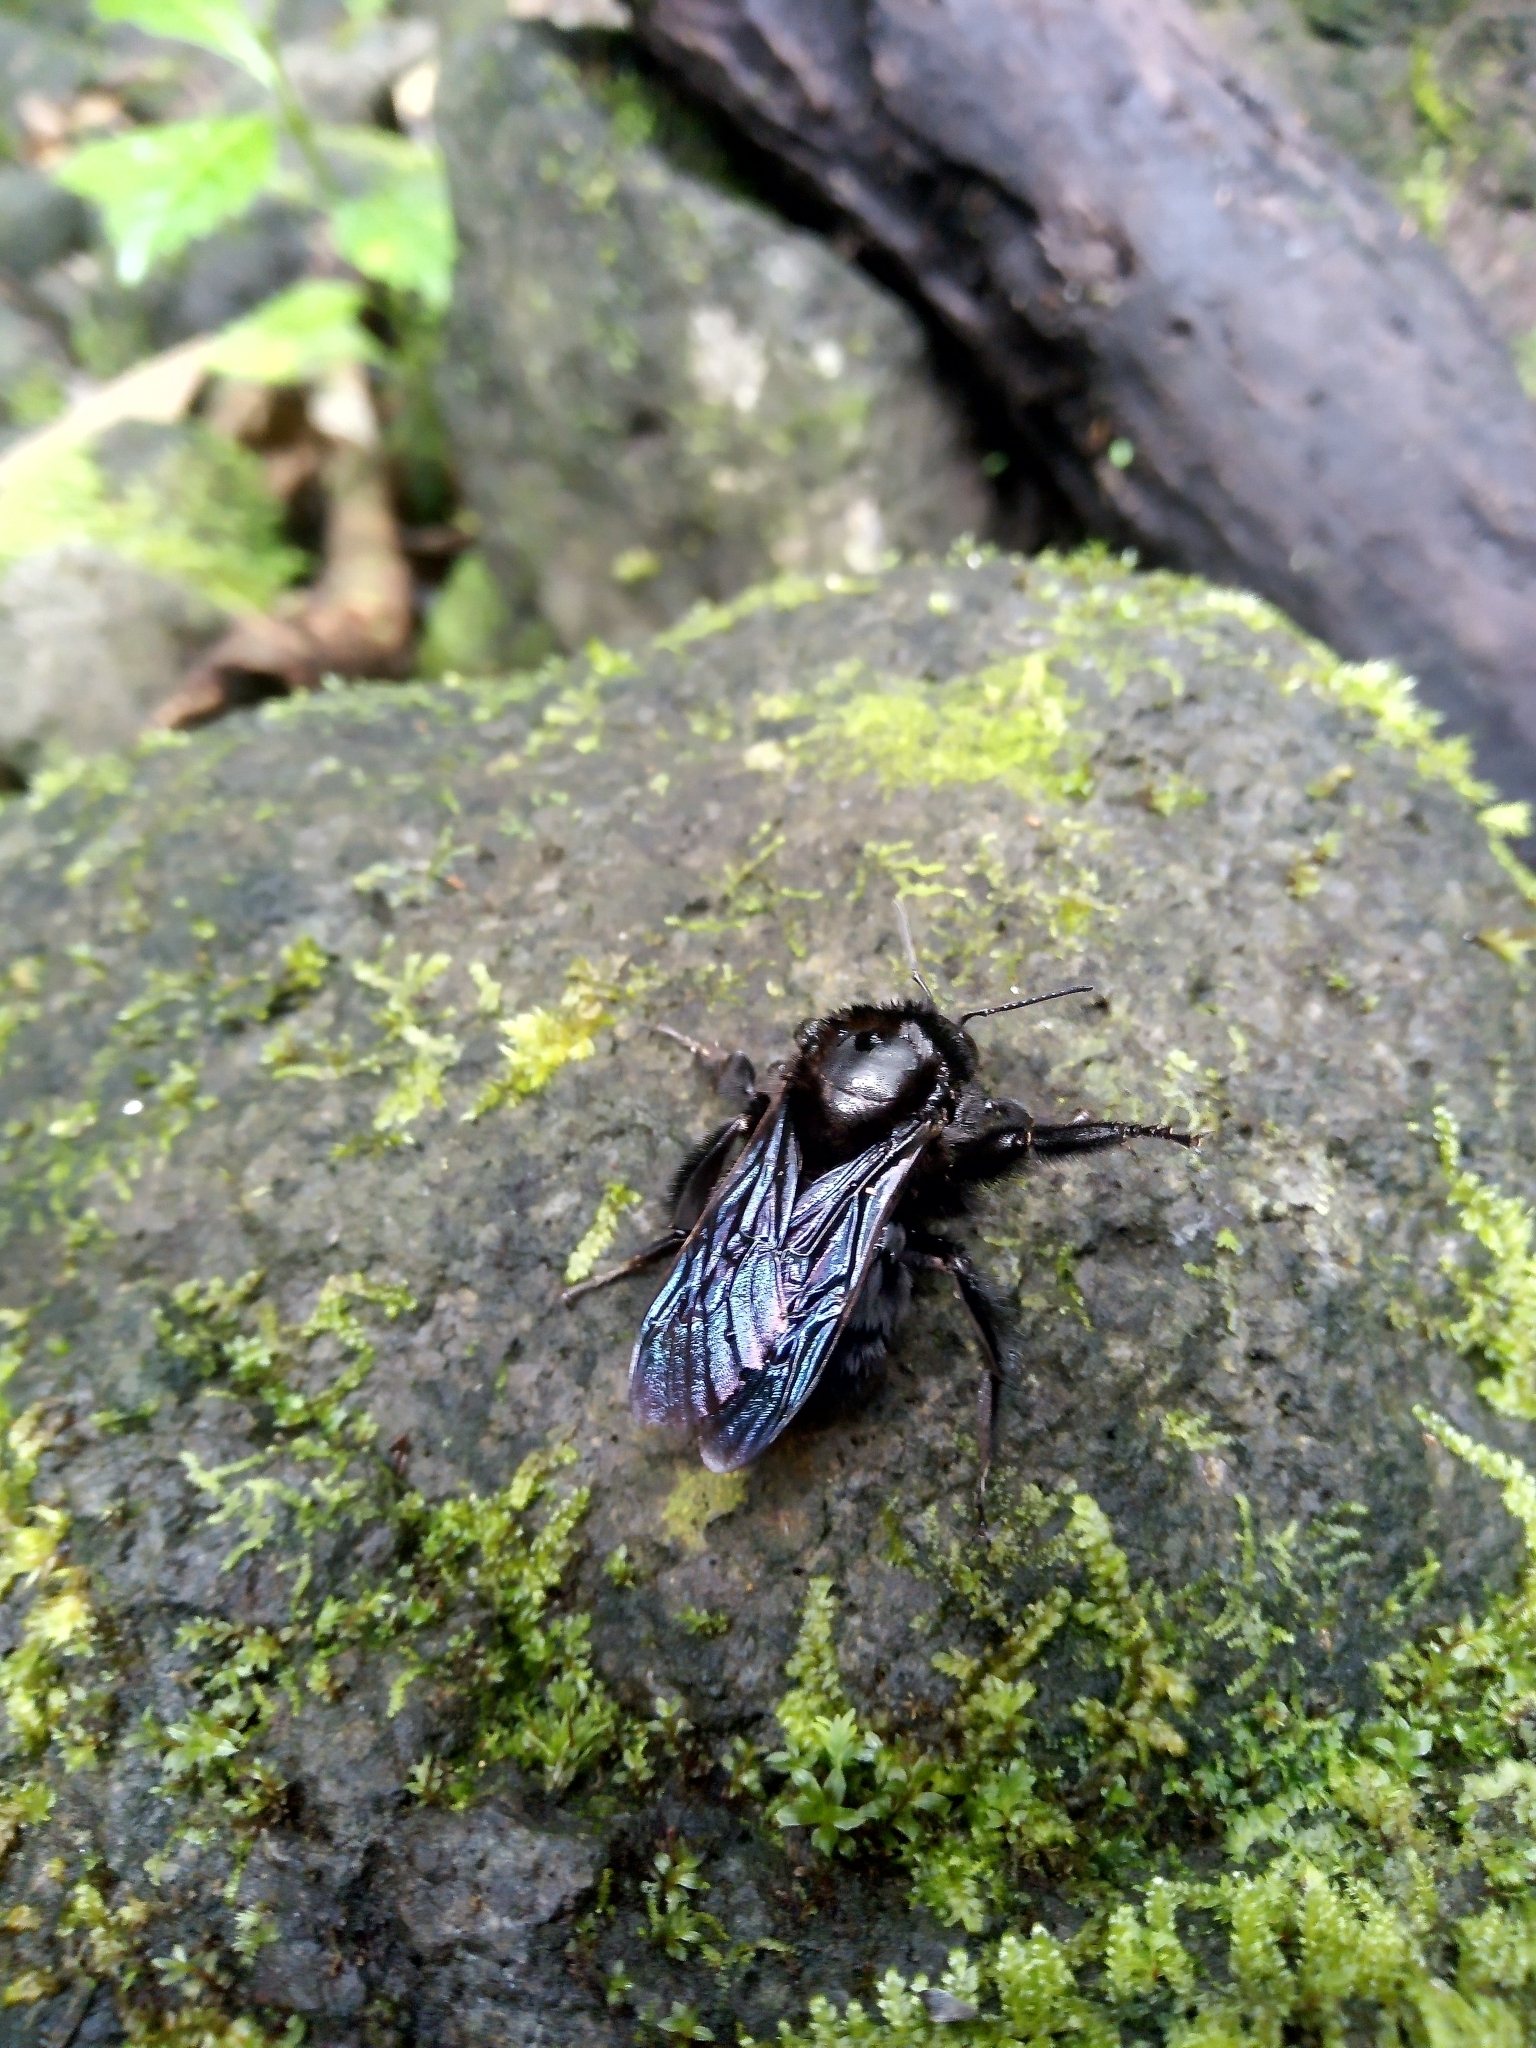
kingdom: Animalia
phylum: Arthropoda
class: Insecta
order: Hymenoptera
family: Apidae
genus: Bombus
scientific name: Bombus pullatus
